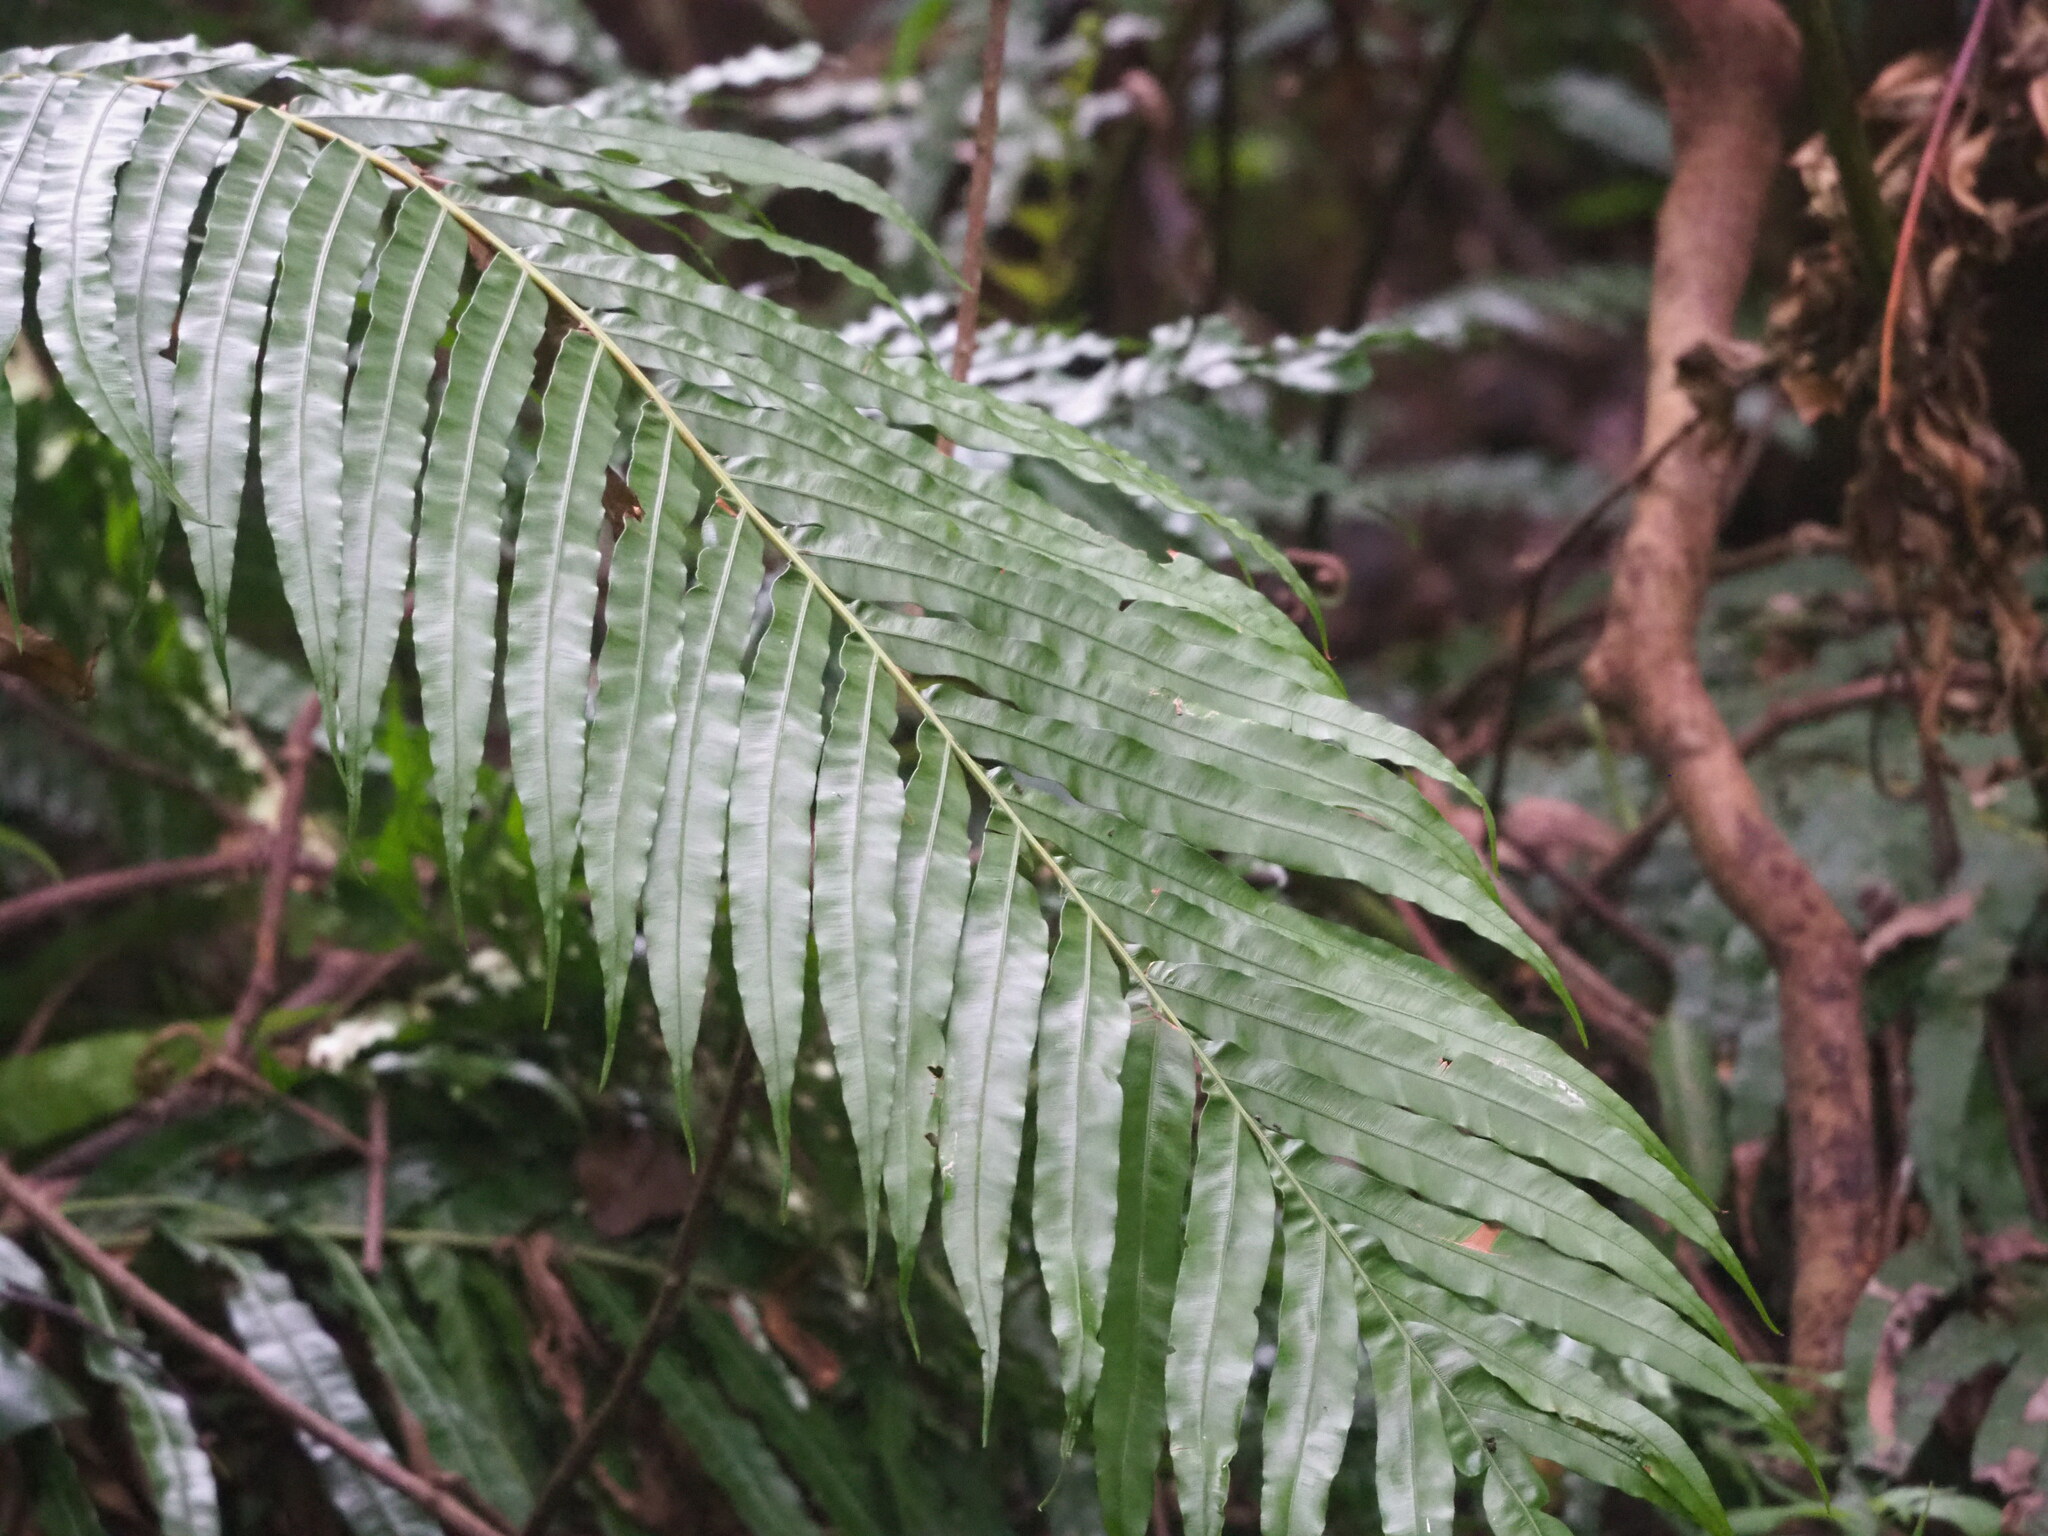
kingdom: Plantae
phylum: Tracheophyta
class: Polypodiopsida
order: Polypodiales
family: Blechnaceae
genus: Blechnopsis
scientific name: Blechnopsis orientalis
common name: Oriental blechnum
